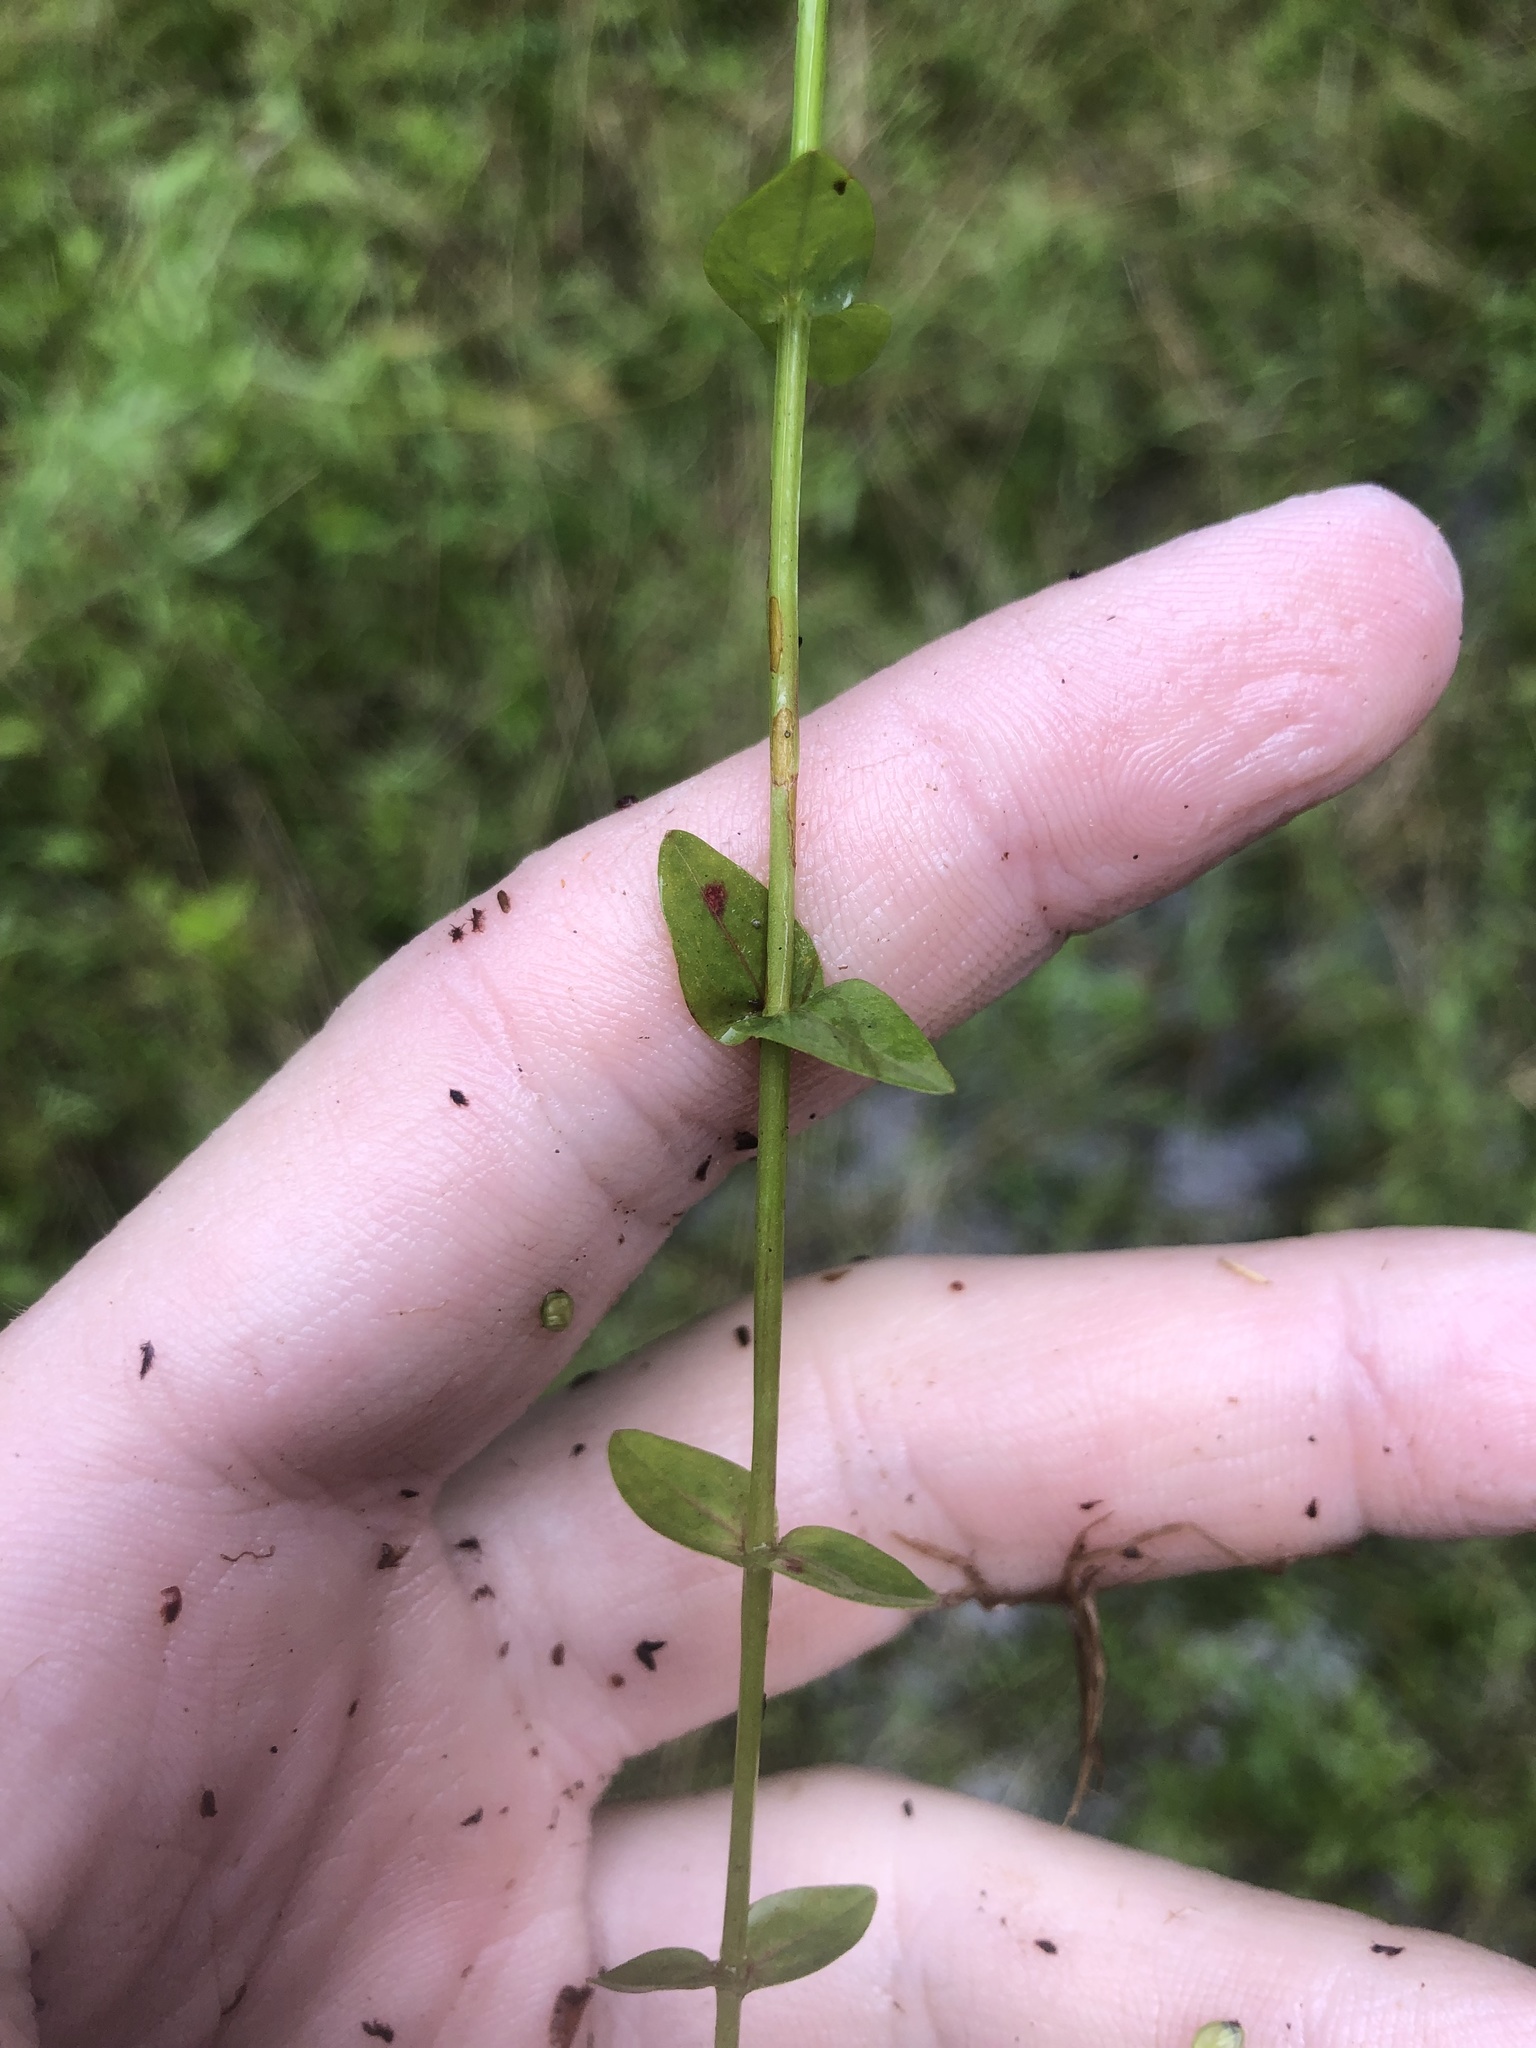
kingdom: Plantae
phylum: Tracheophyta
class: Magnoliopsida
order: Malpighiales
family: Hypericaceae
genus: Hypericum
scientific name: Hypericum gymnanthum
